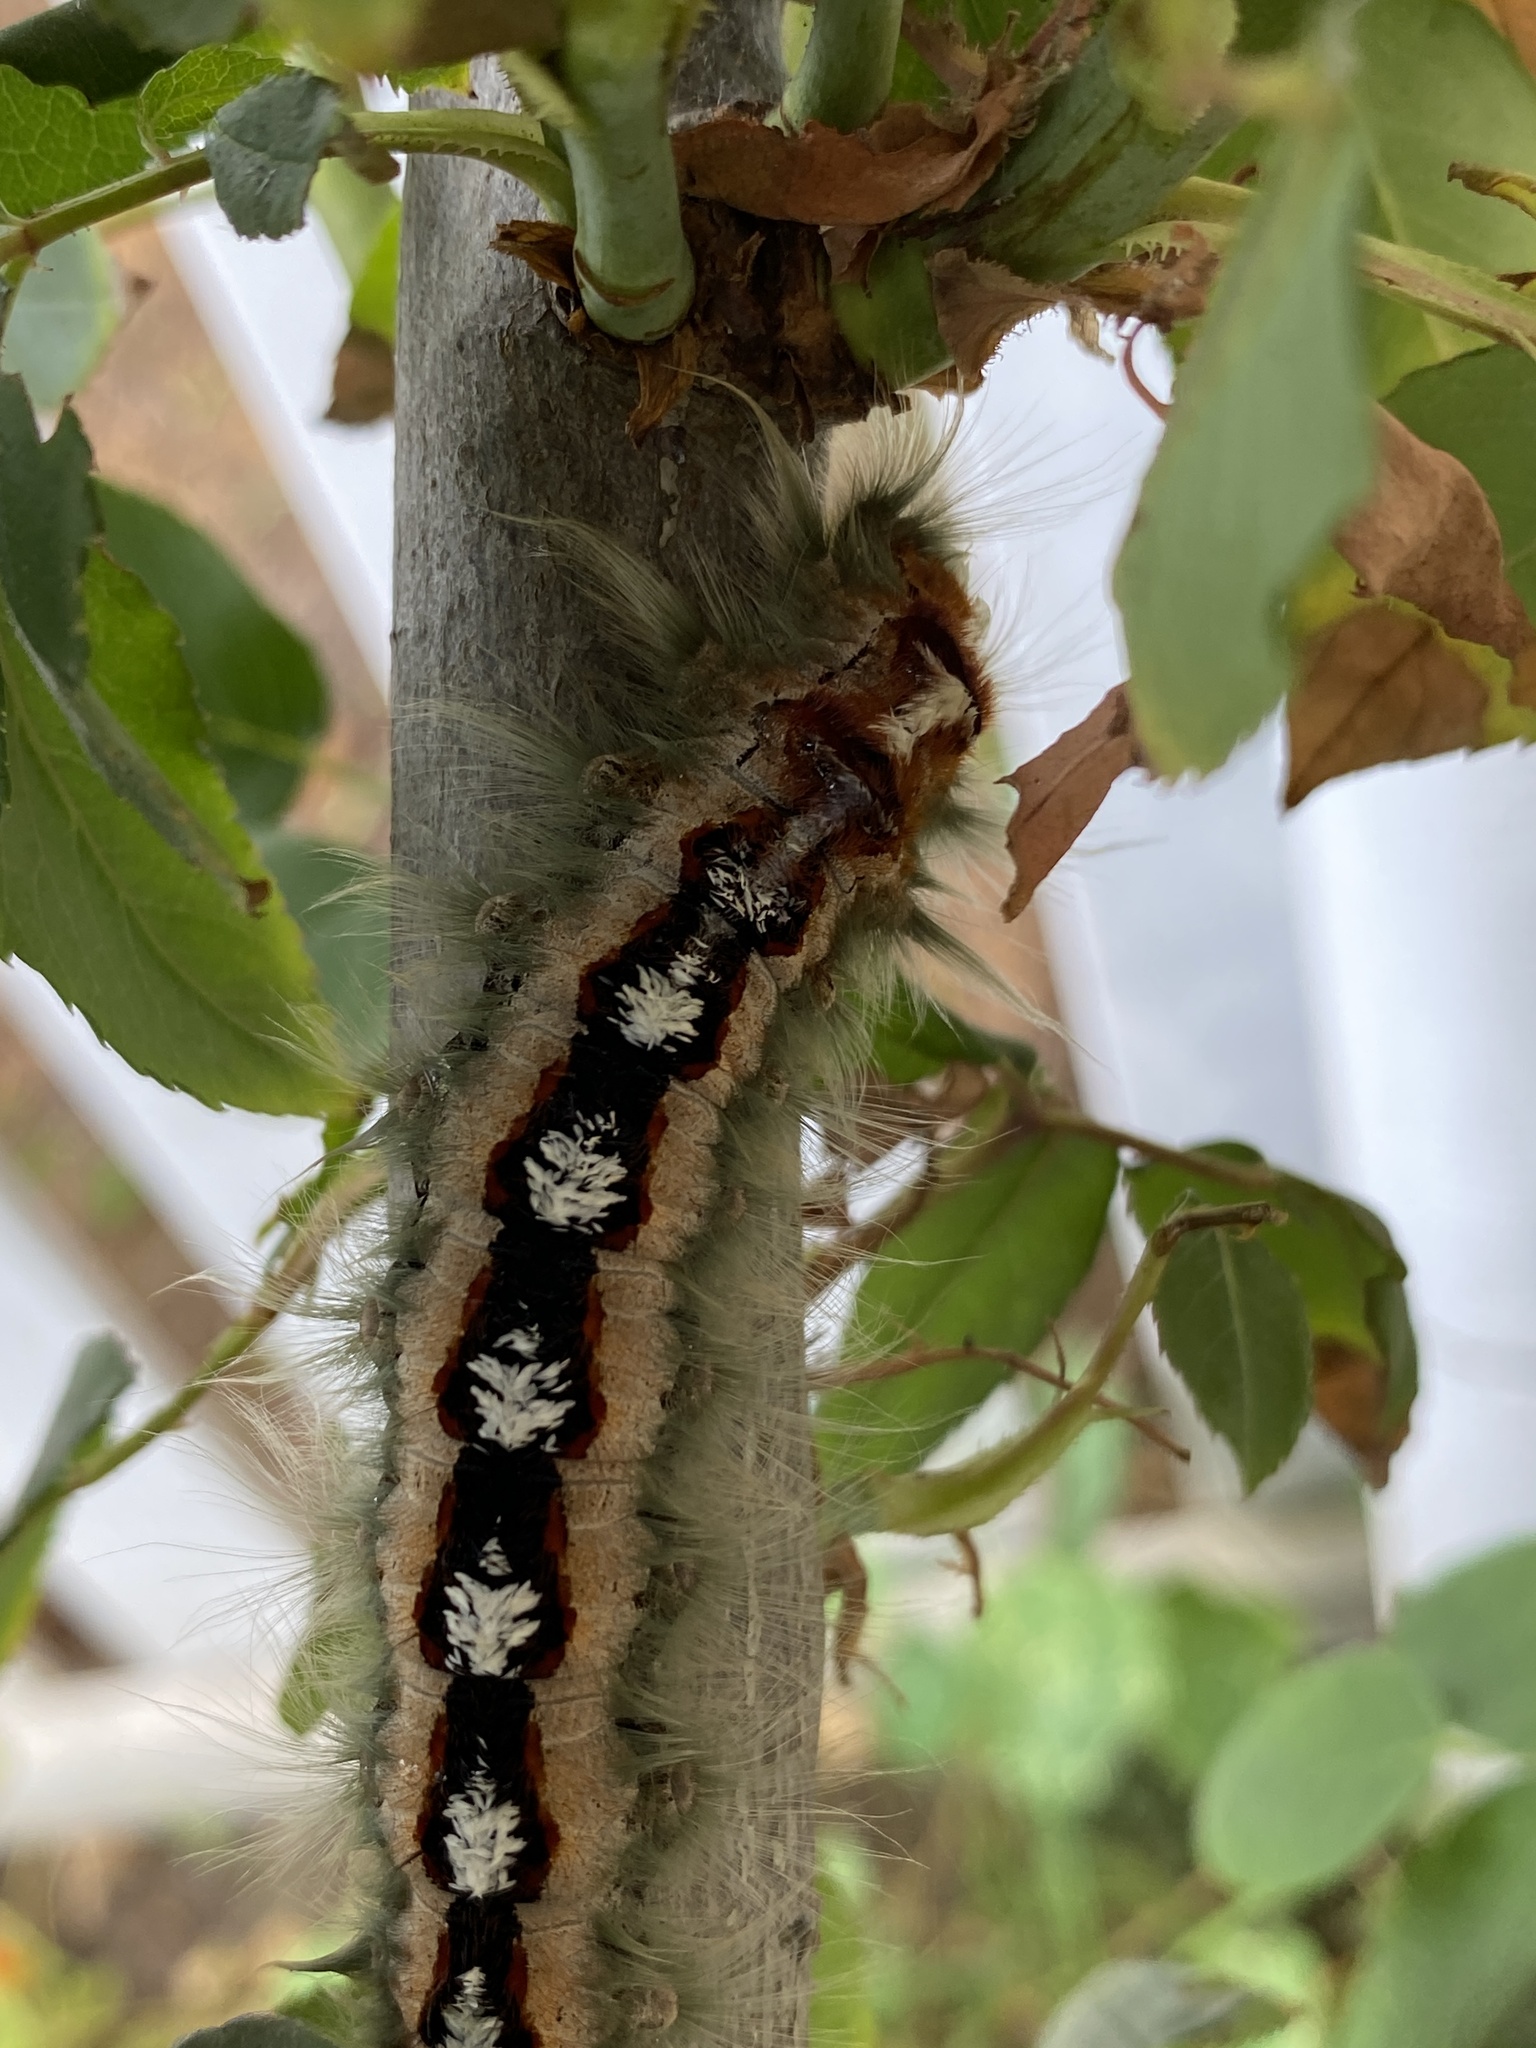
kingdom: Animalia
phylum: Arthropoda
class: Insecta
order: Lepidoptera
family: Lasiocampidae
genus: Eutricha
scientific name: Eutricha capensis
